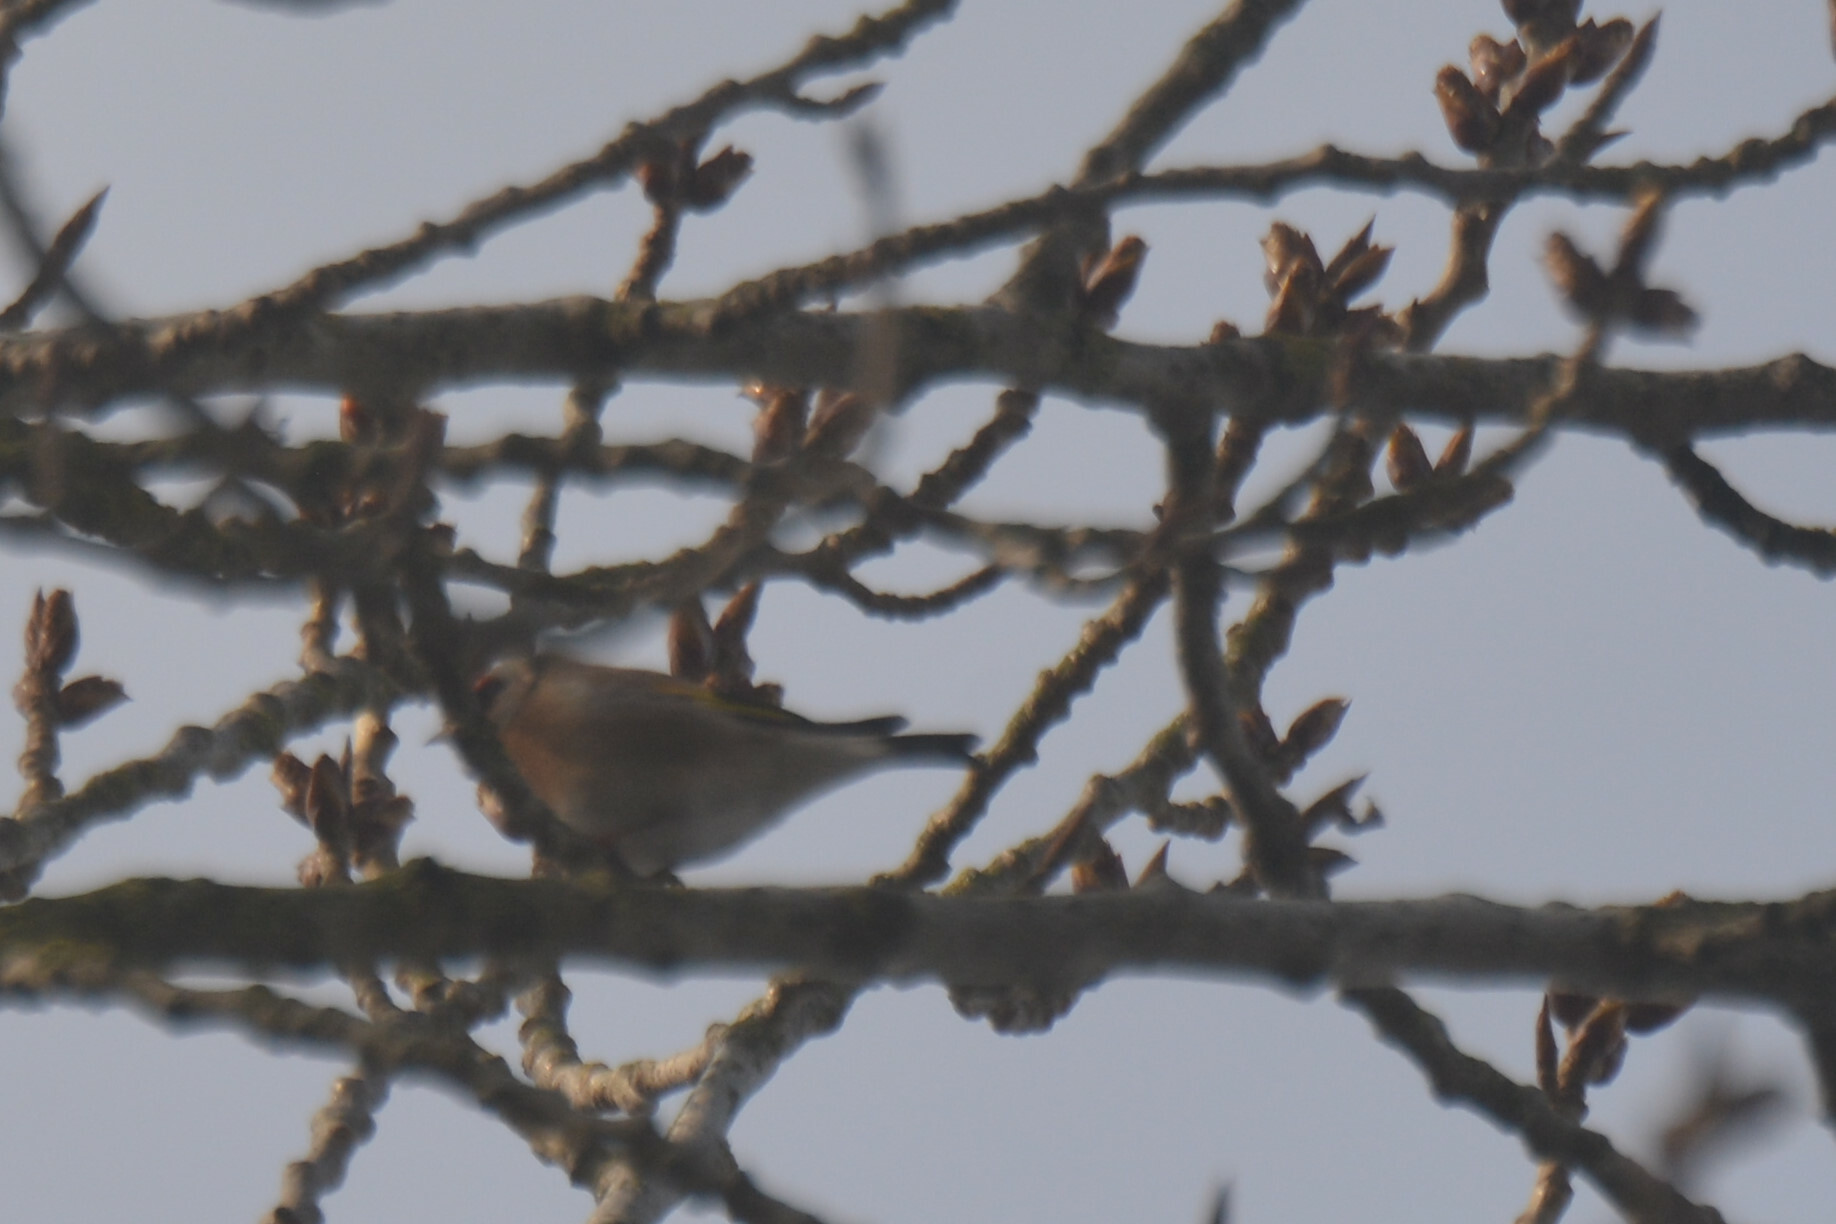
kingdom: Animalia
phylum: Chordata
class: Aves
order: Passeriformes
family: Fringillidae
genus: Carduelis
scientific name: Carduelis carduelis
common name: European goldfinch
